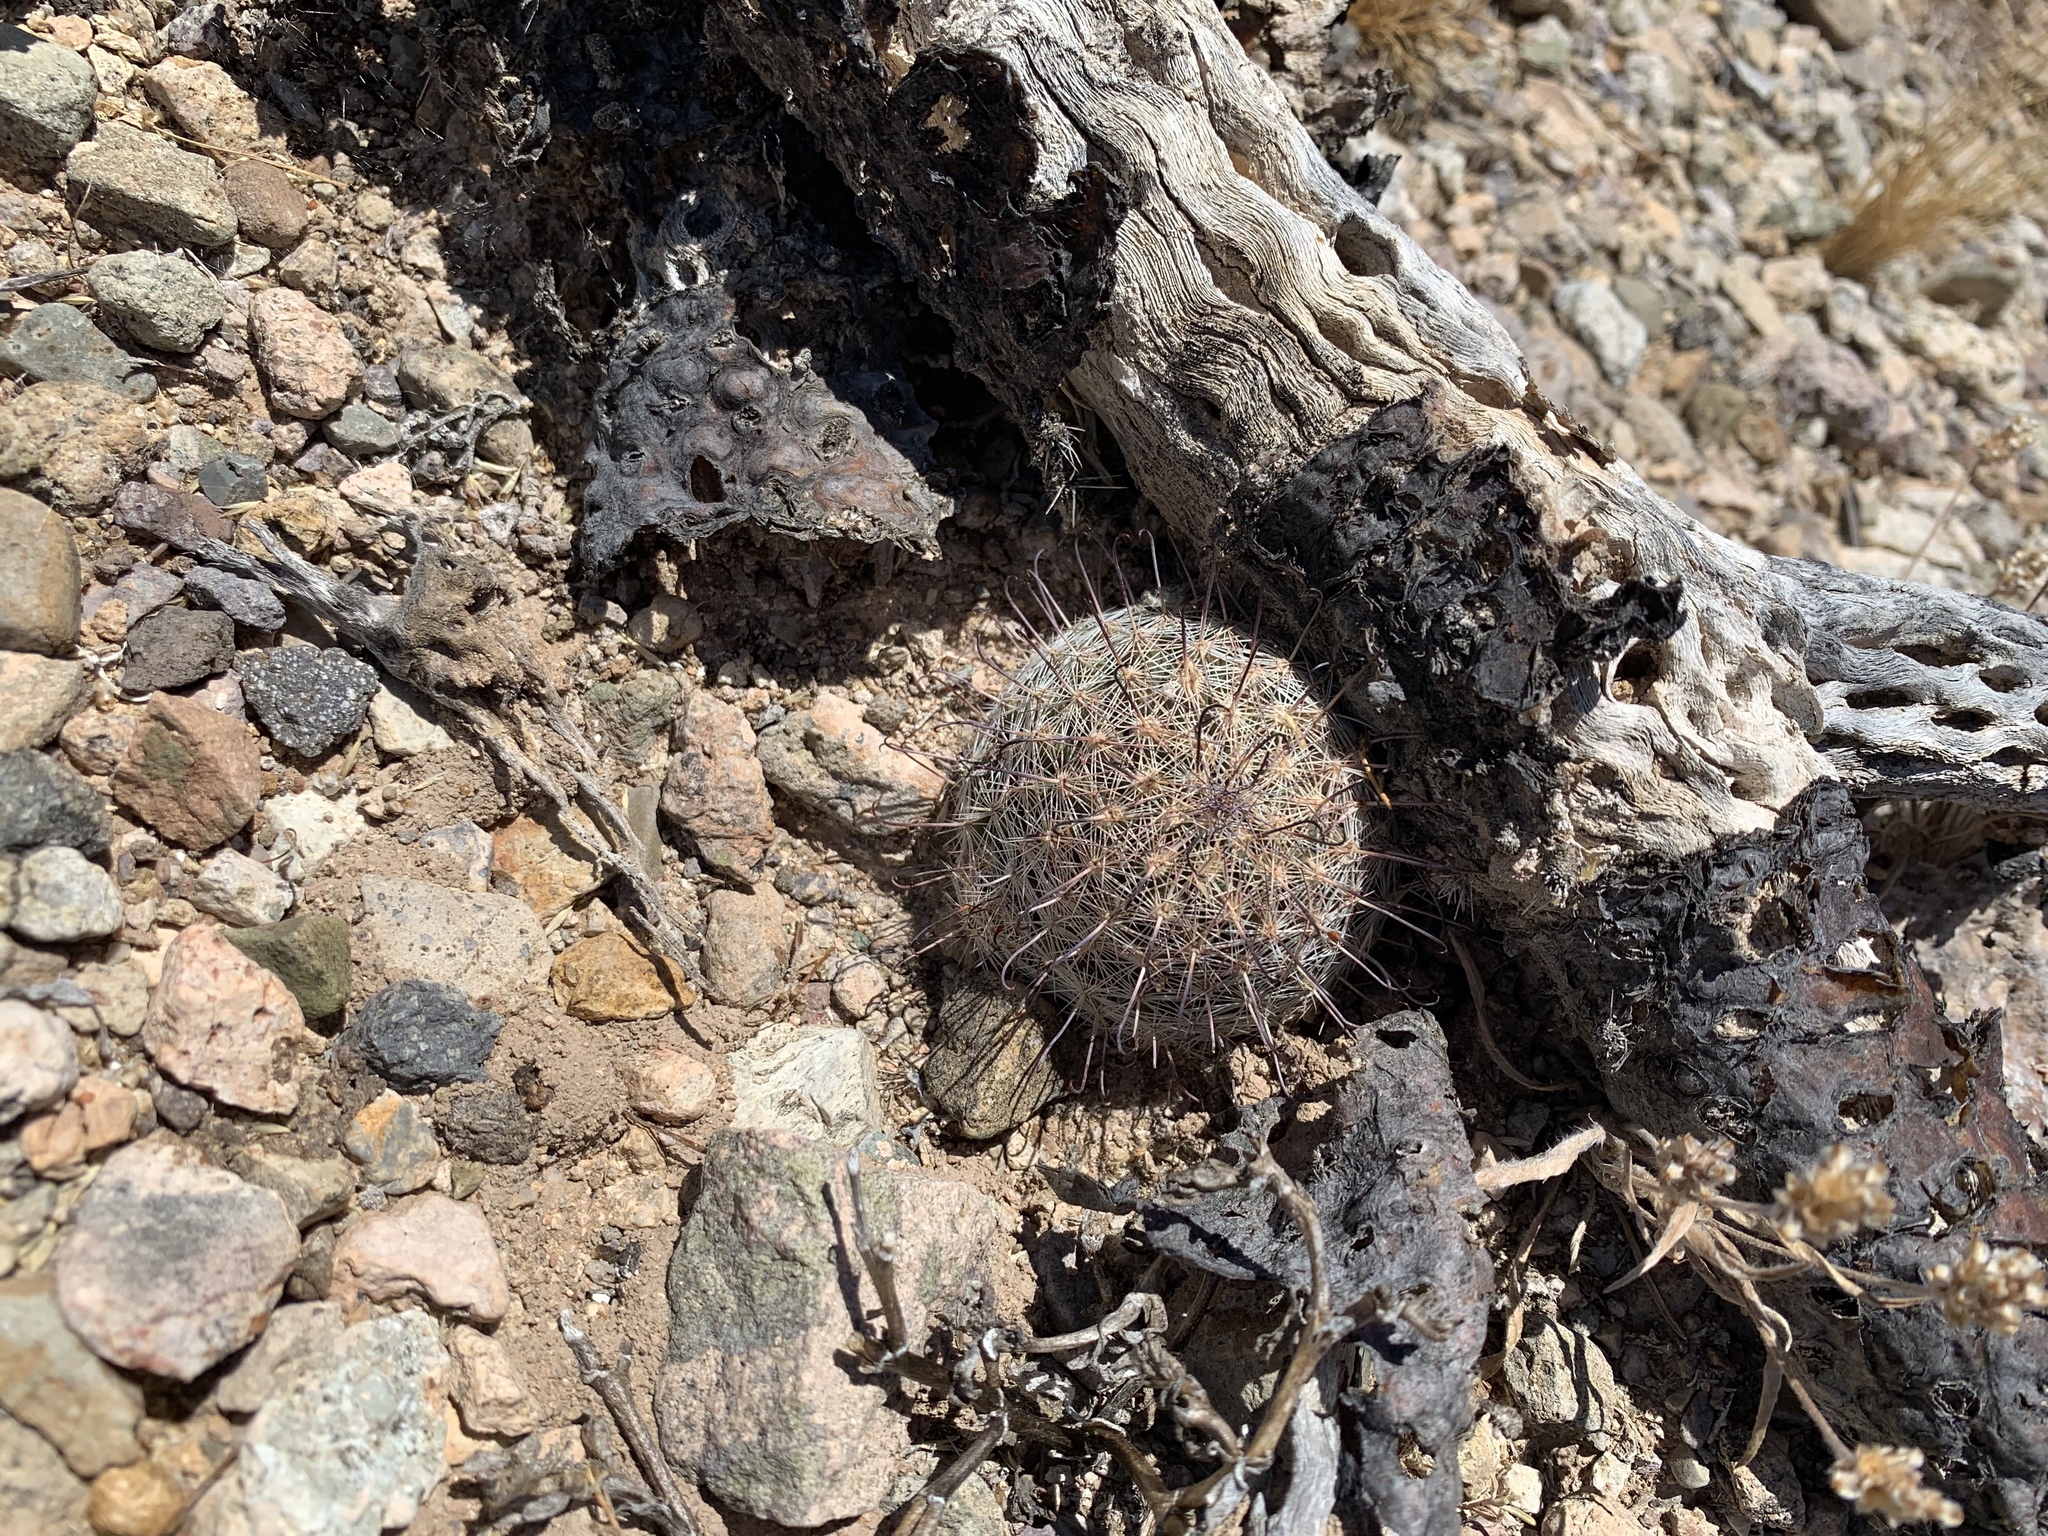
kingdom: Plantae
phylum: Tracheophyta
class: Magnoliopsida
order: Caryophyllales
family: Cactaceae
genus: Cochemiea
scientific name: Cochemiea grahamii
